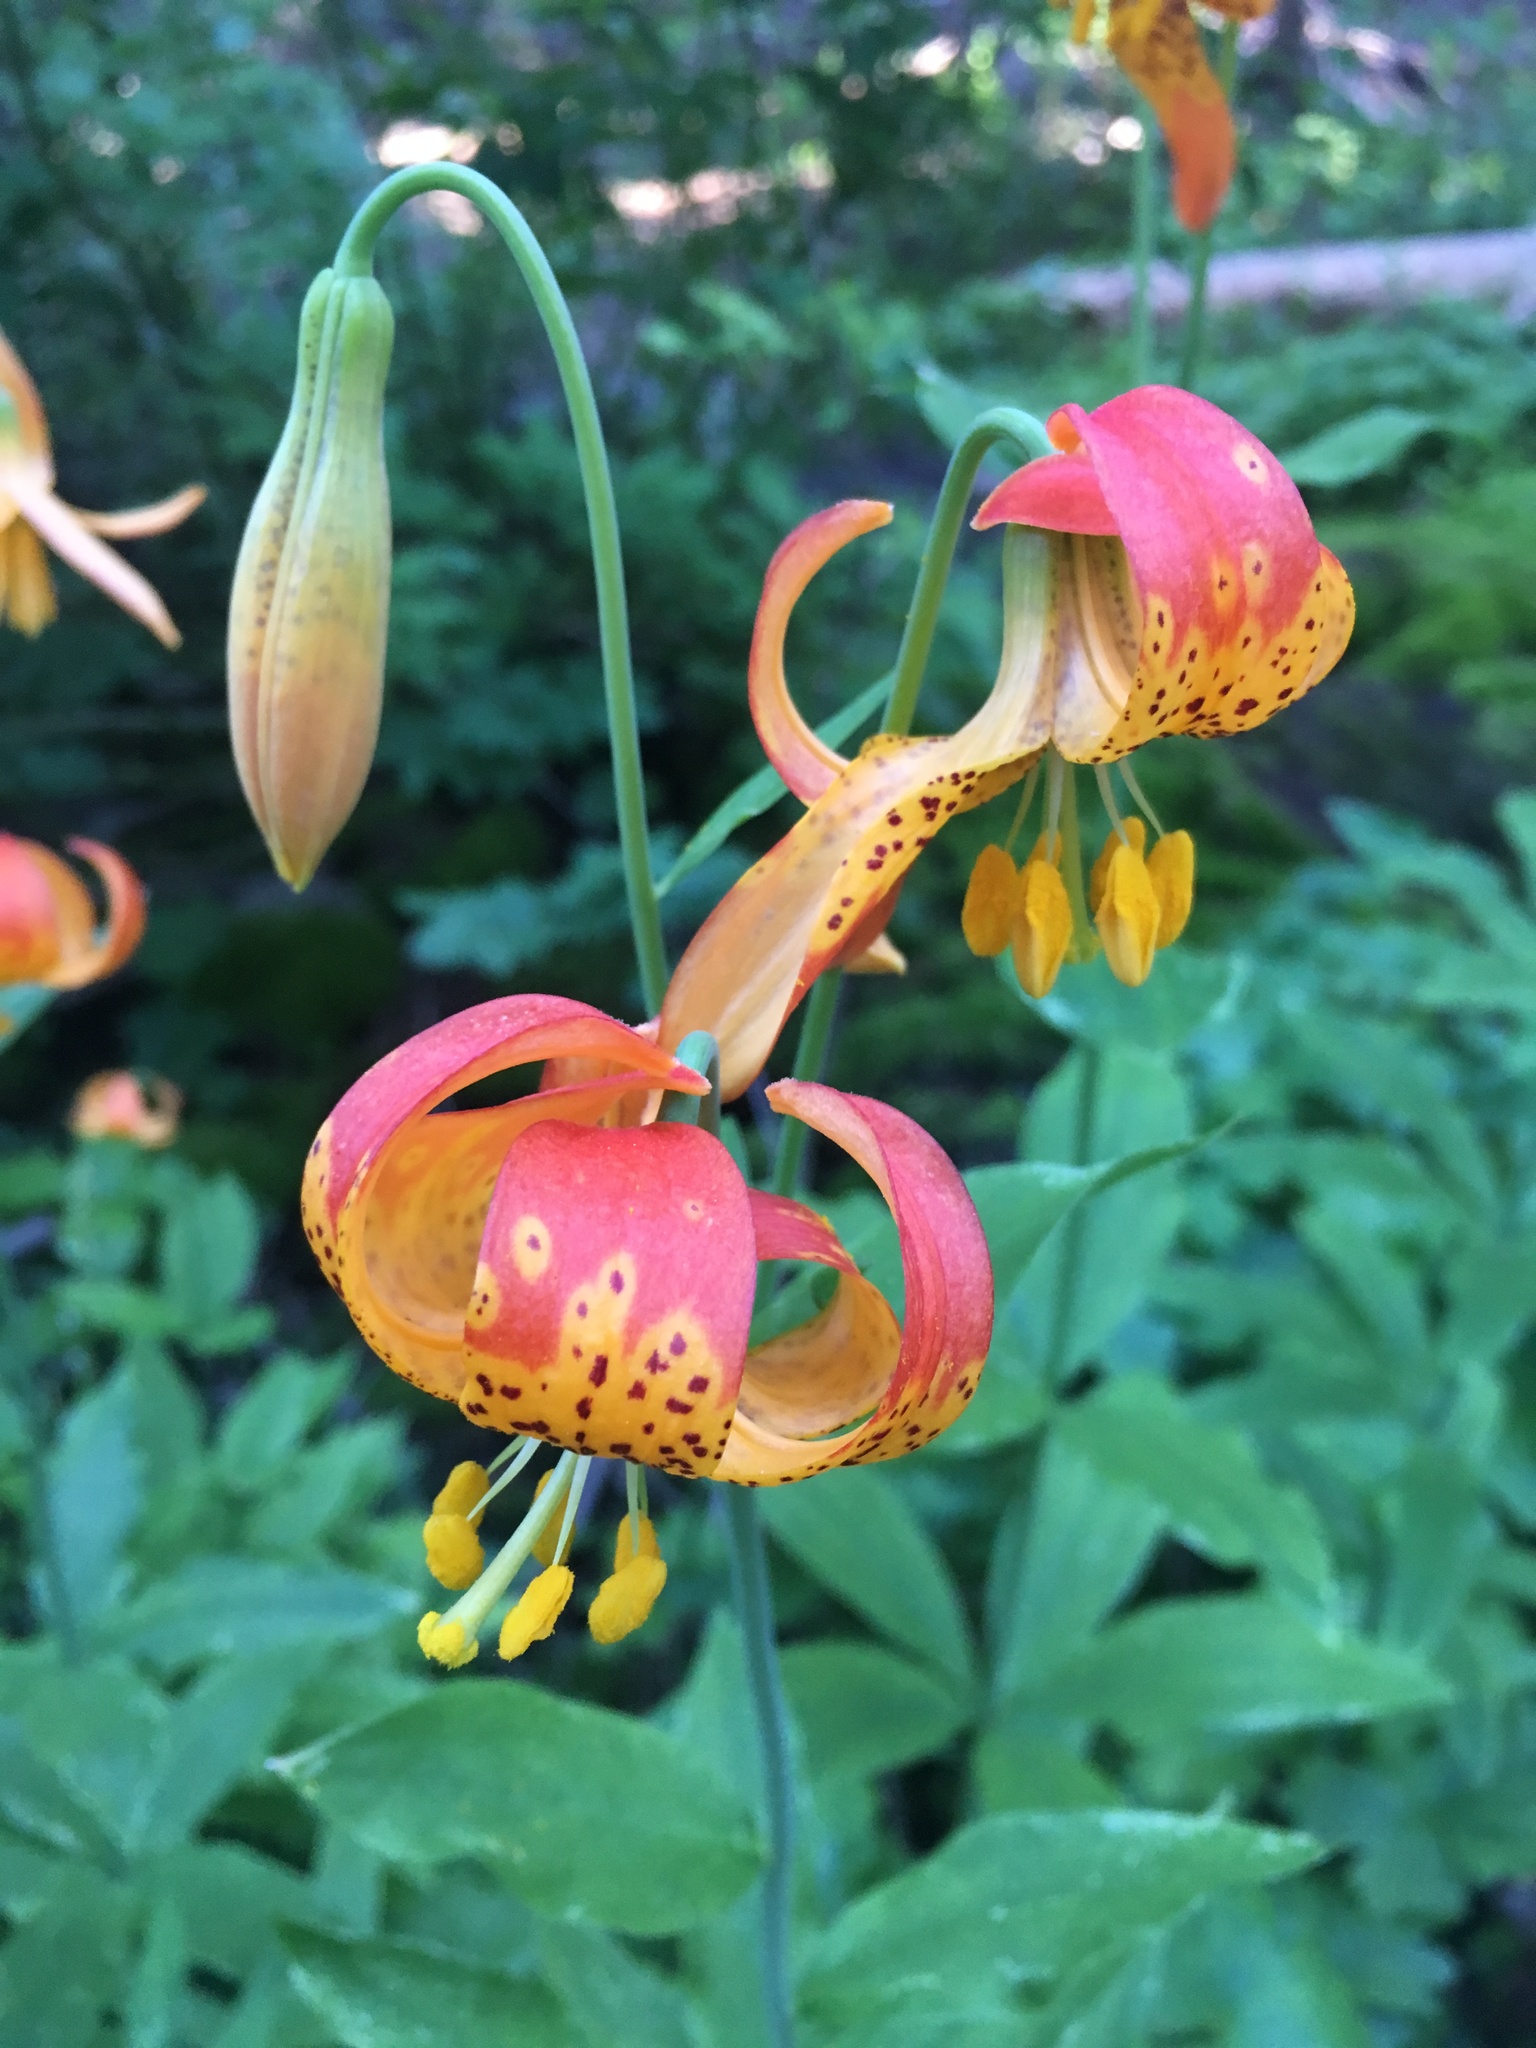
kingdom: Plantae
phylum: Tracheophyta
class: Liliopsida
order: Liliales
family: Liliaceae
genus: Lilium
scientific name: Lilium pardalinum
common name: Panther lily
